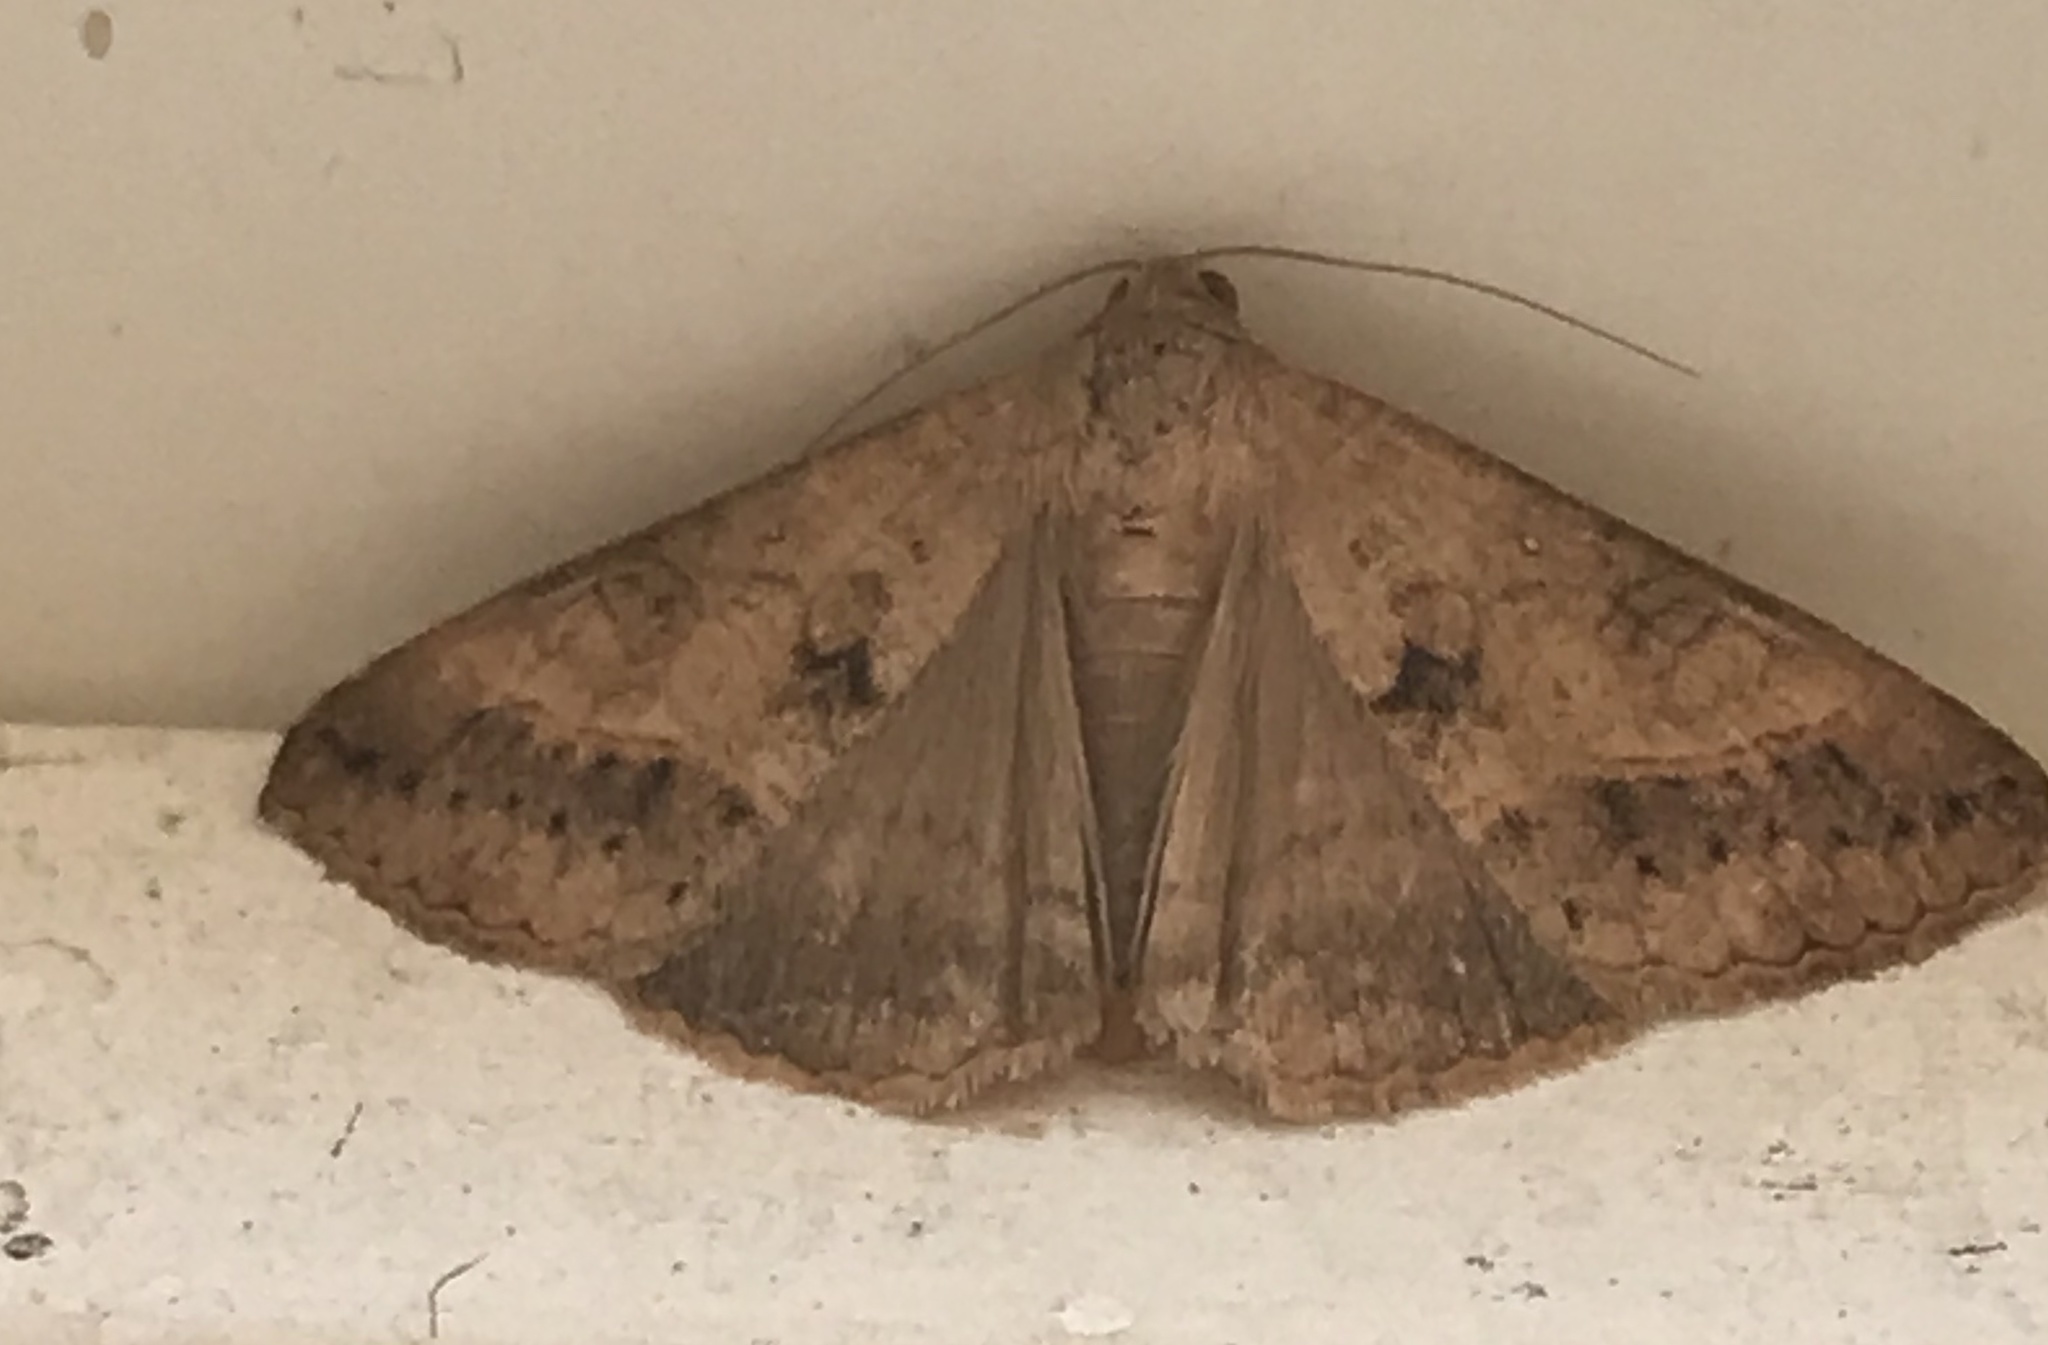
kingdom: Animalia
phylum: Arthropoda
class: Insecta
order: Lepidoptera
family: Erebidae
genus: Mocis
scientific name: Mocis latipes
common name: Striped grass looper
